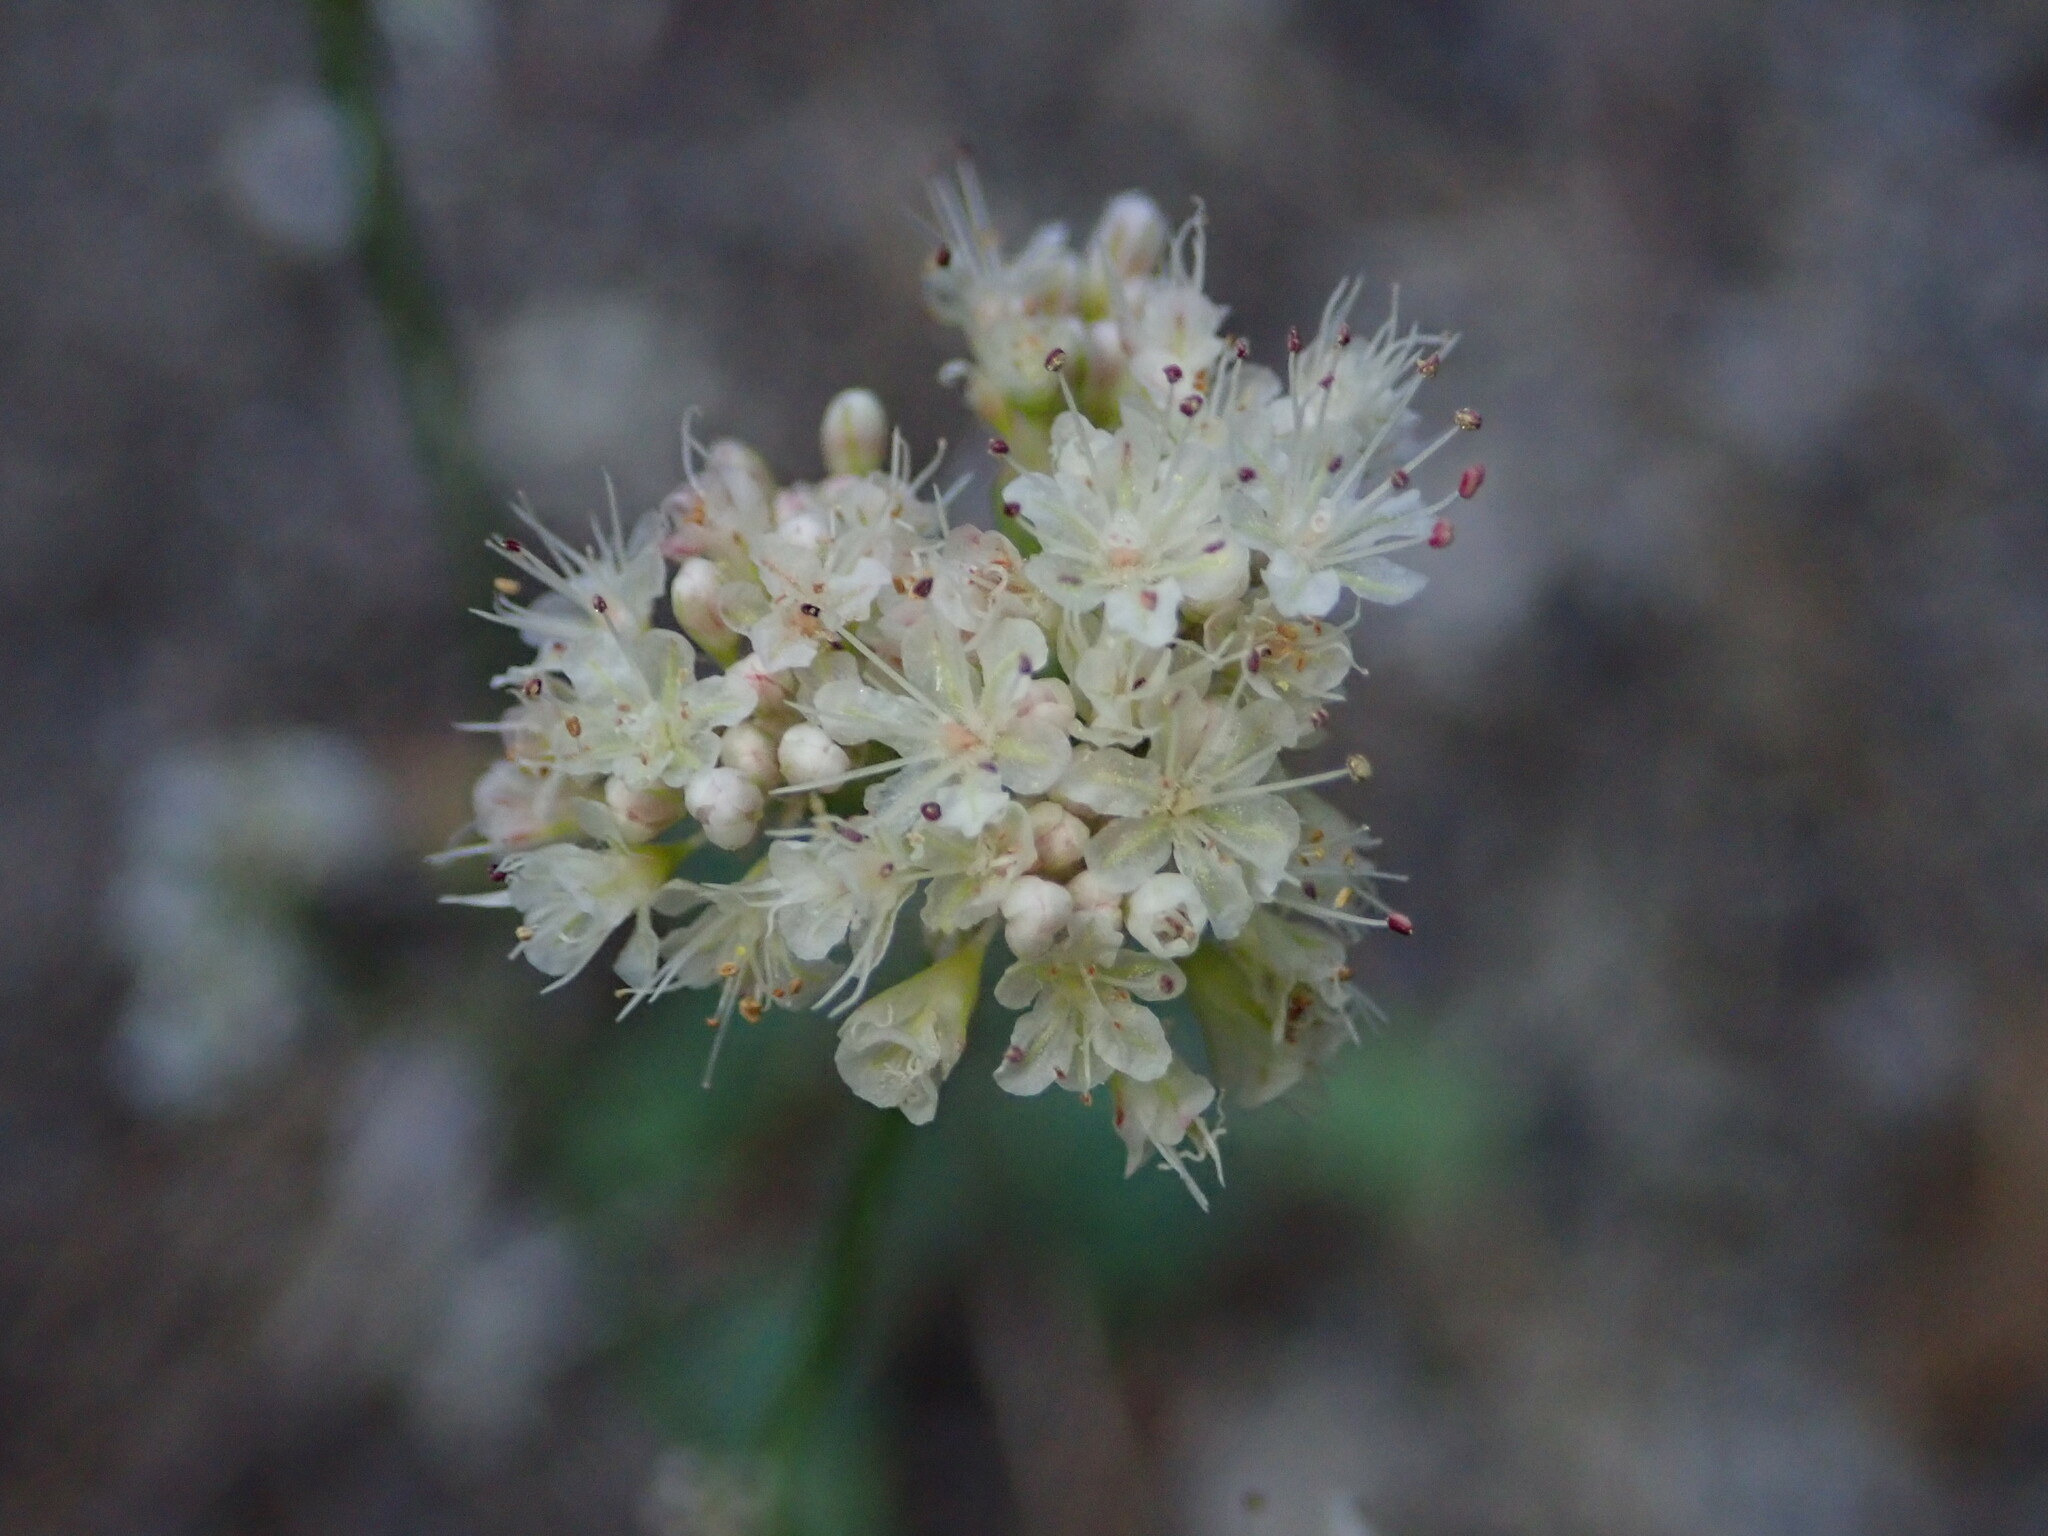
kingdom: Plantae
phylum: Tracheophyta
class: Magnoliopsida
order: Caryophyllales
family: Polygonaceae
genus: Eriogonum
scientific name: Eriogonum nudum
